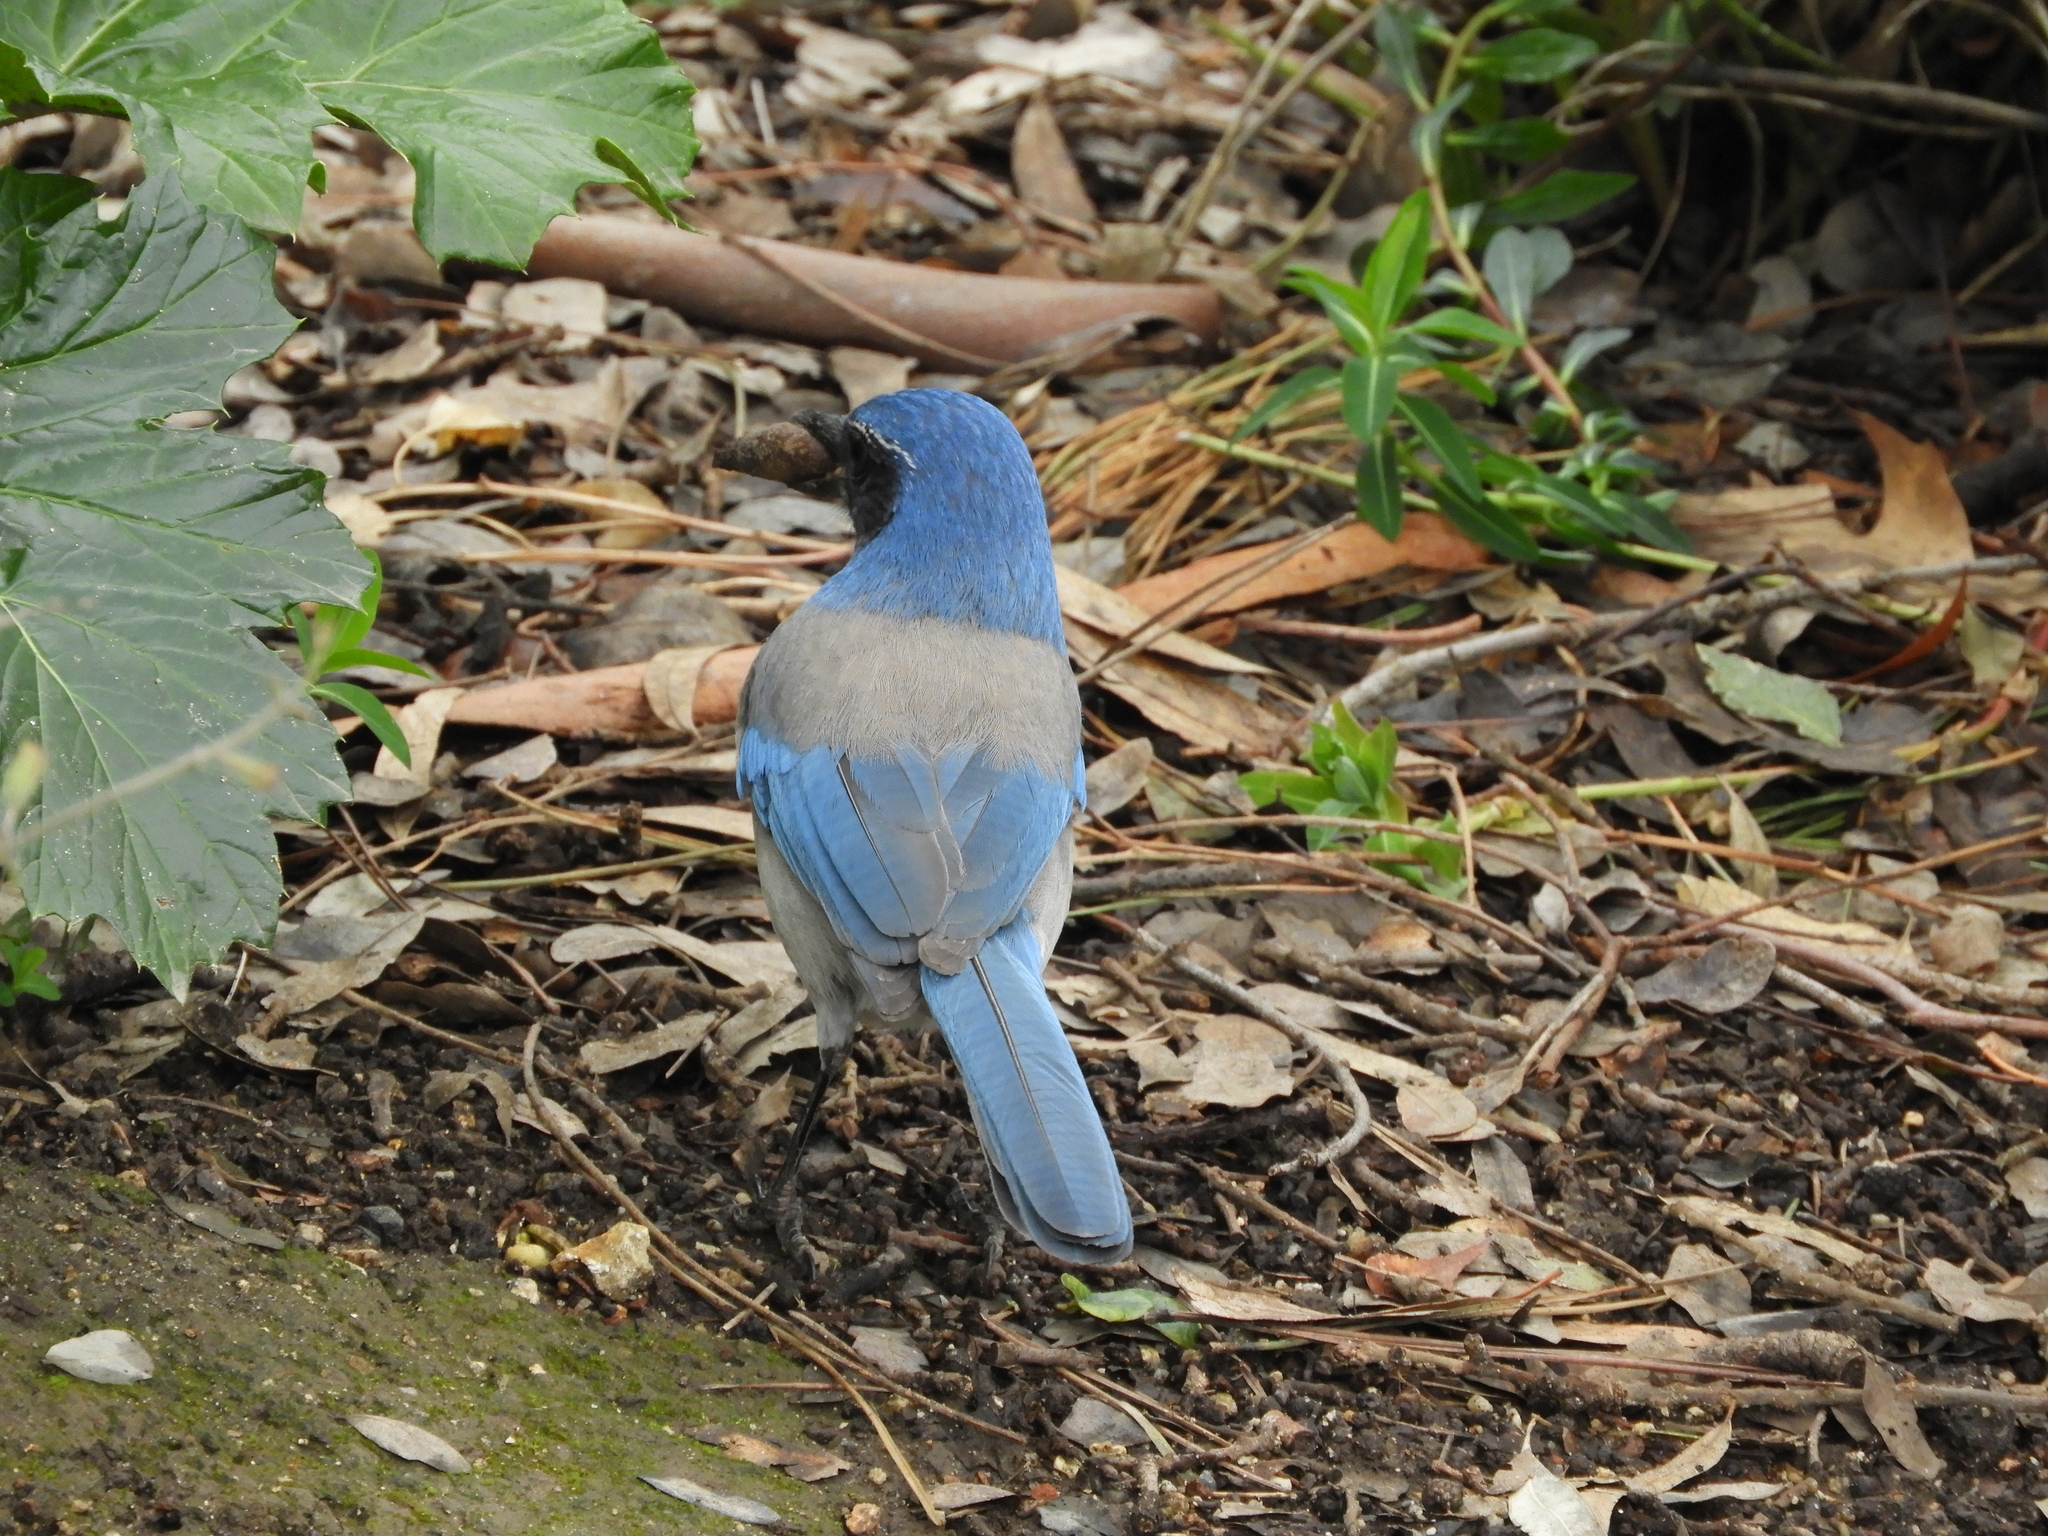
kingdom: Animalia
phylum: Chordata
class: Aves
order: Passeriformes
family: Corvidae
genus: Aphelocoma
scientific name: Aphelocoma californica
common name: California scrub-jay
